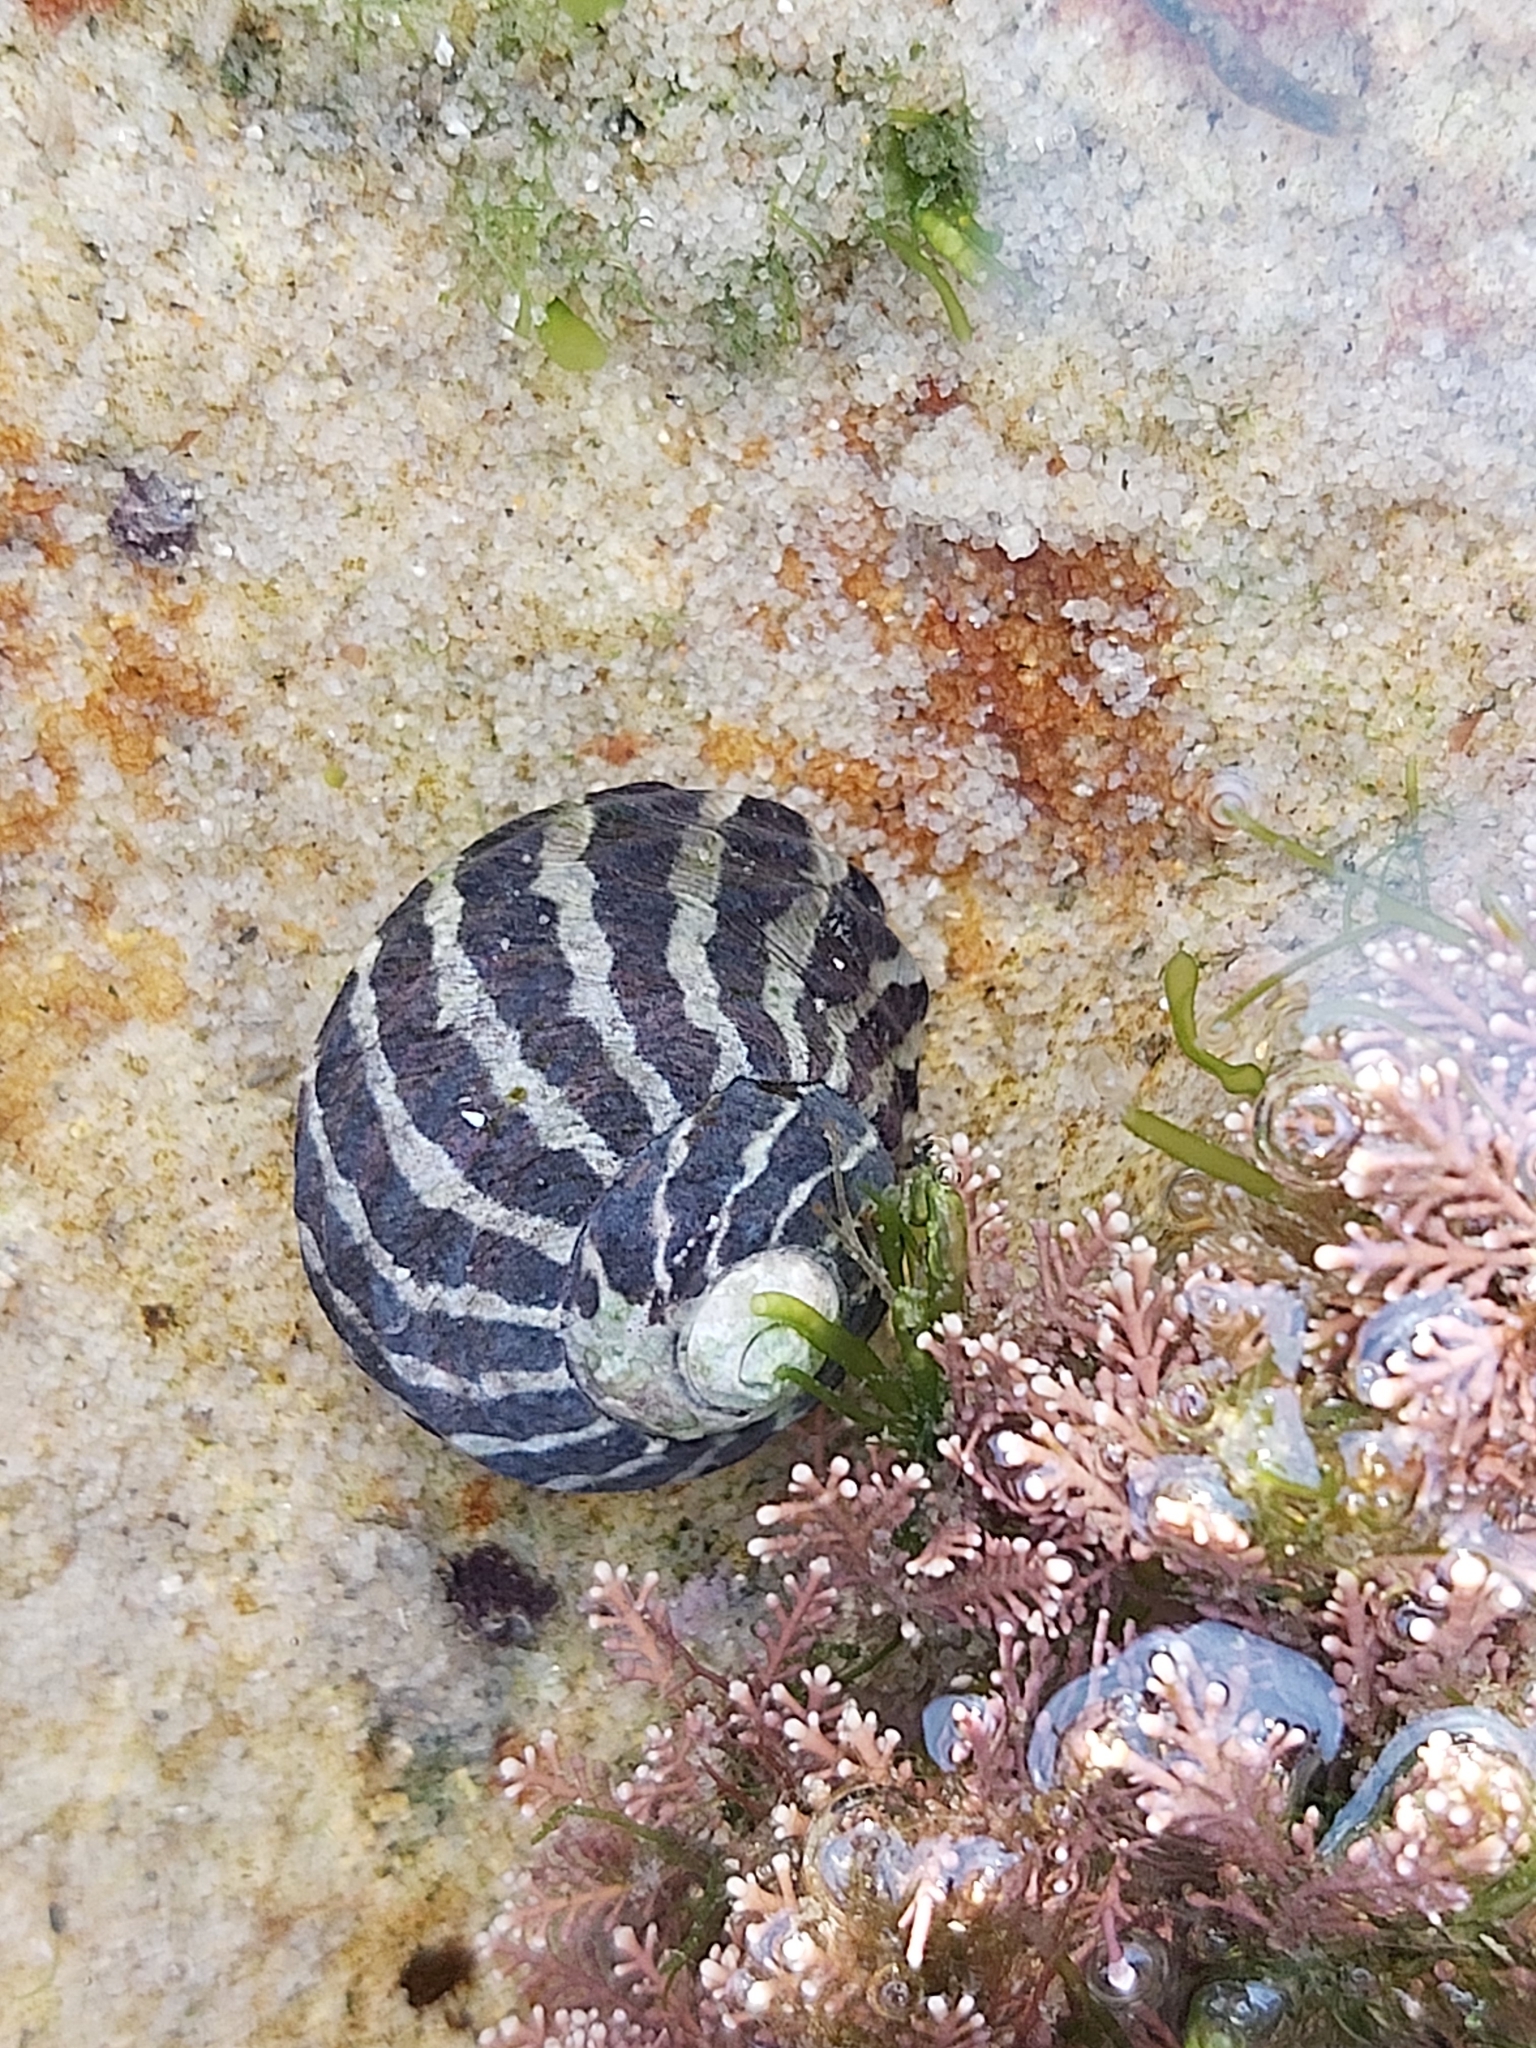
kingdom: Animalia
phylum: Mollusca
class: Gastropoda
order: Trochida
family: Trochidae
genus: Austrocochlea
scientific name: Austrocochlea porcata
